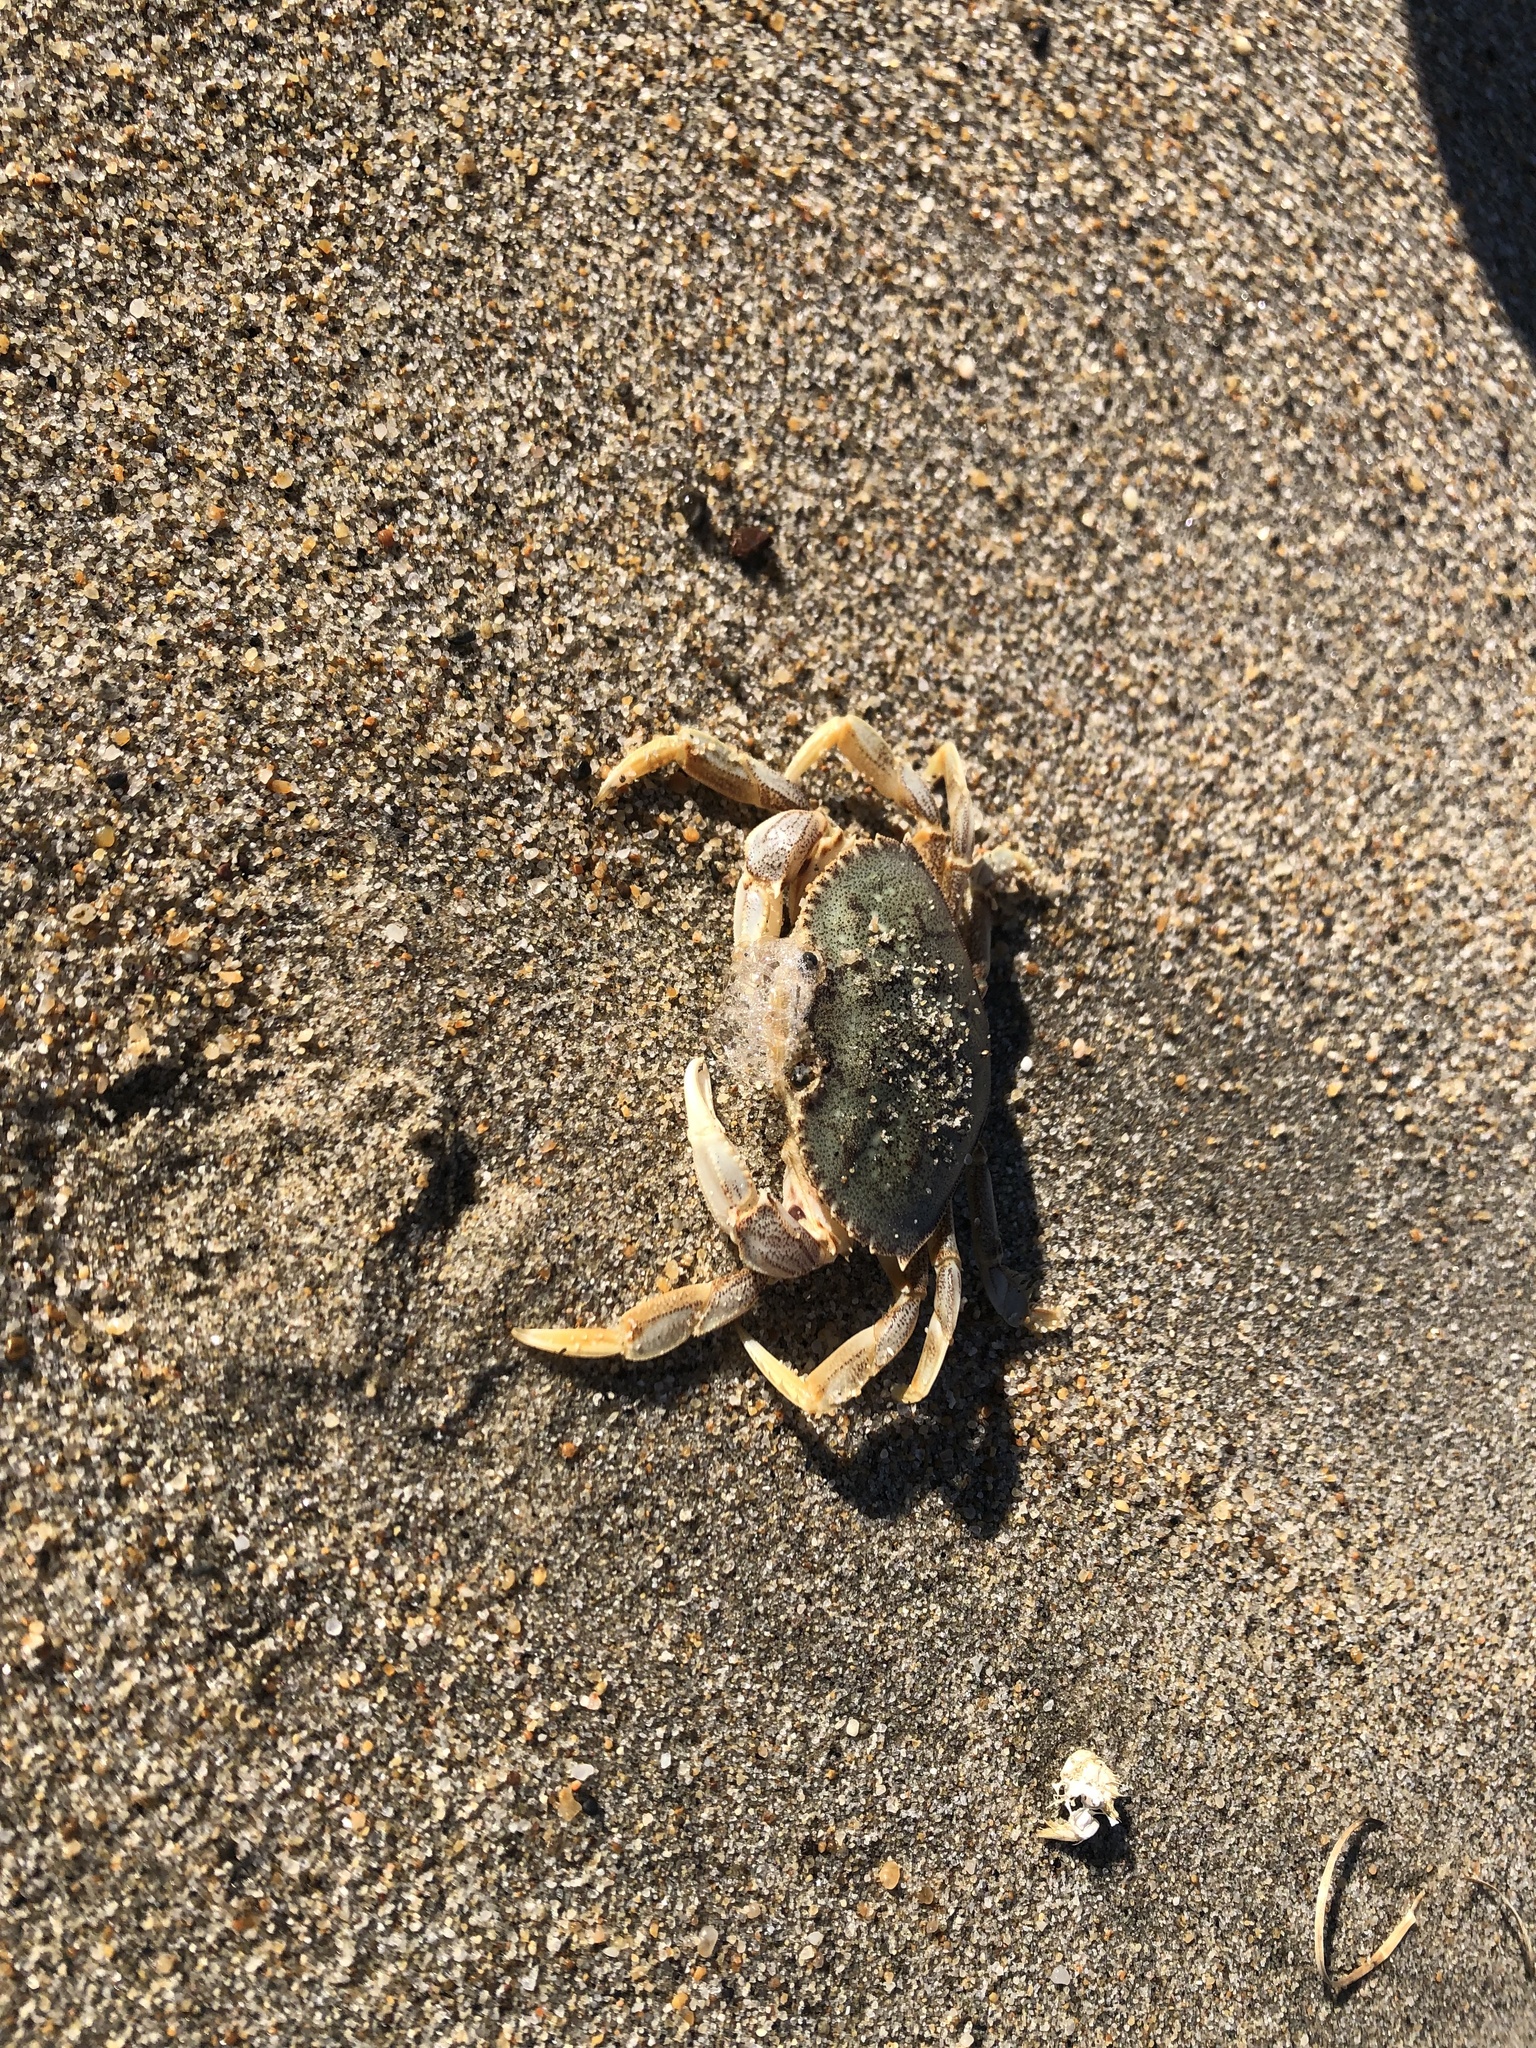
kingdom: Animalia
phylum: Arthropoda
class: Malacostraca
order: Decapoda
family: Cancridae
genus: Metacarcinus
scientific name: Metacarcinus magister
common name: Californian crab
